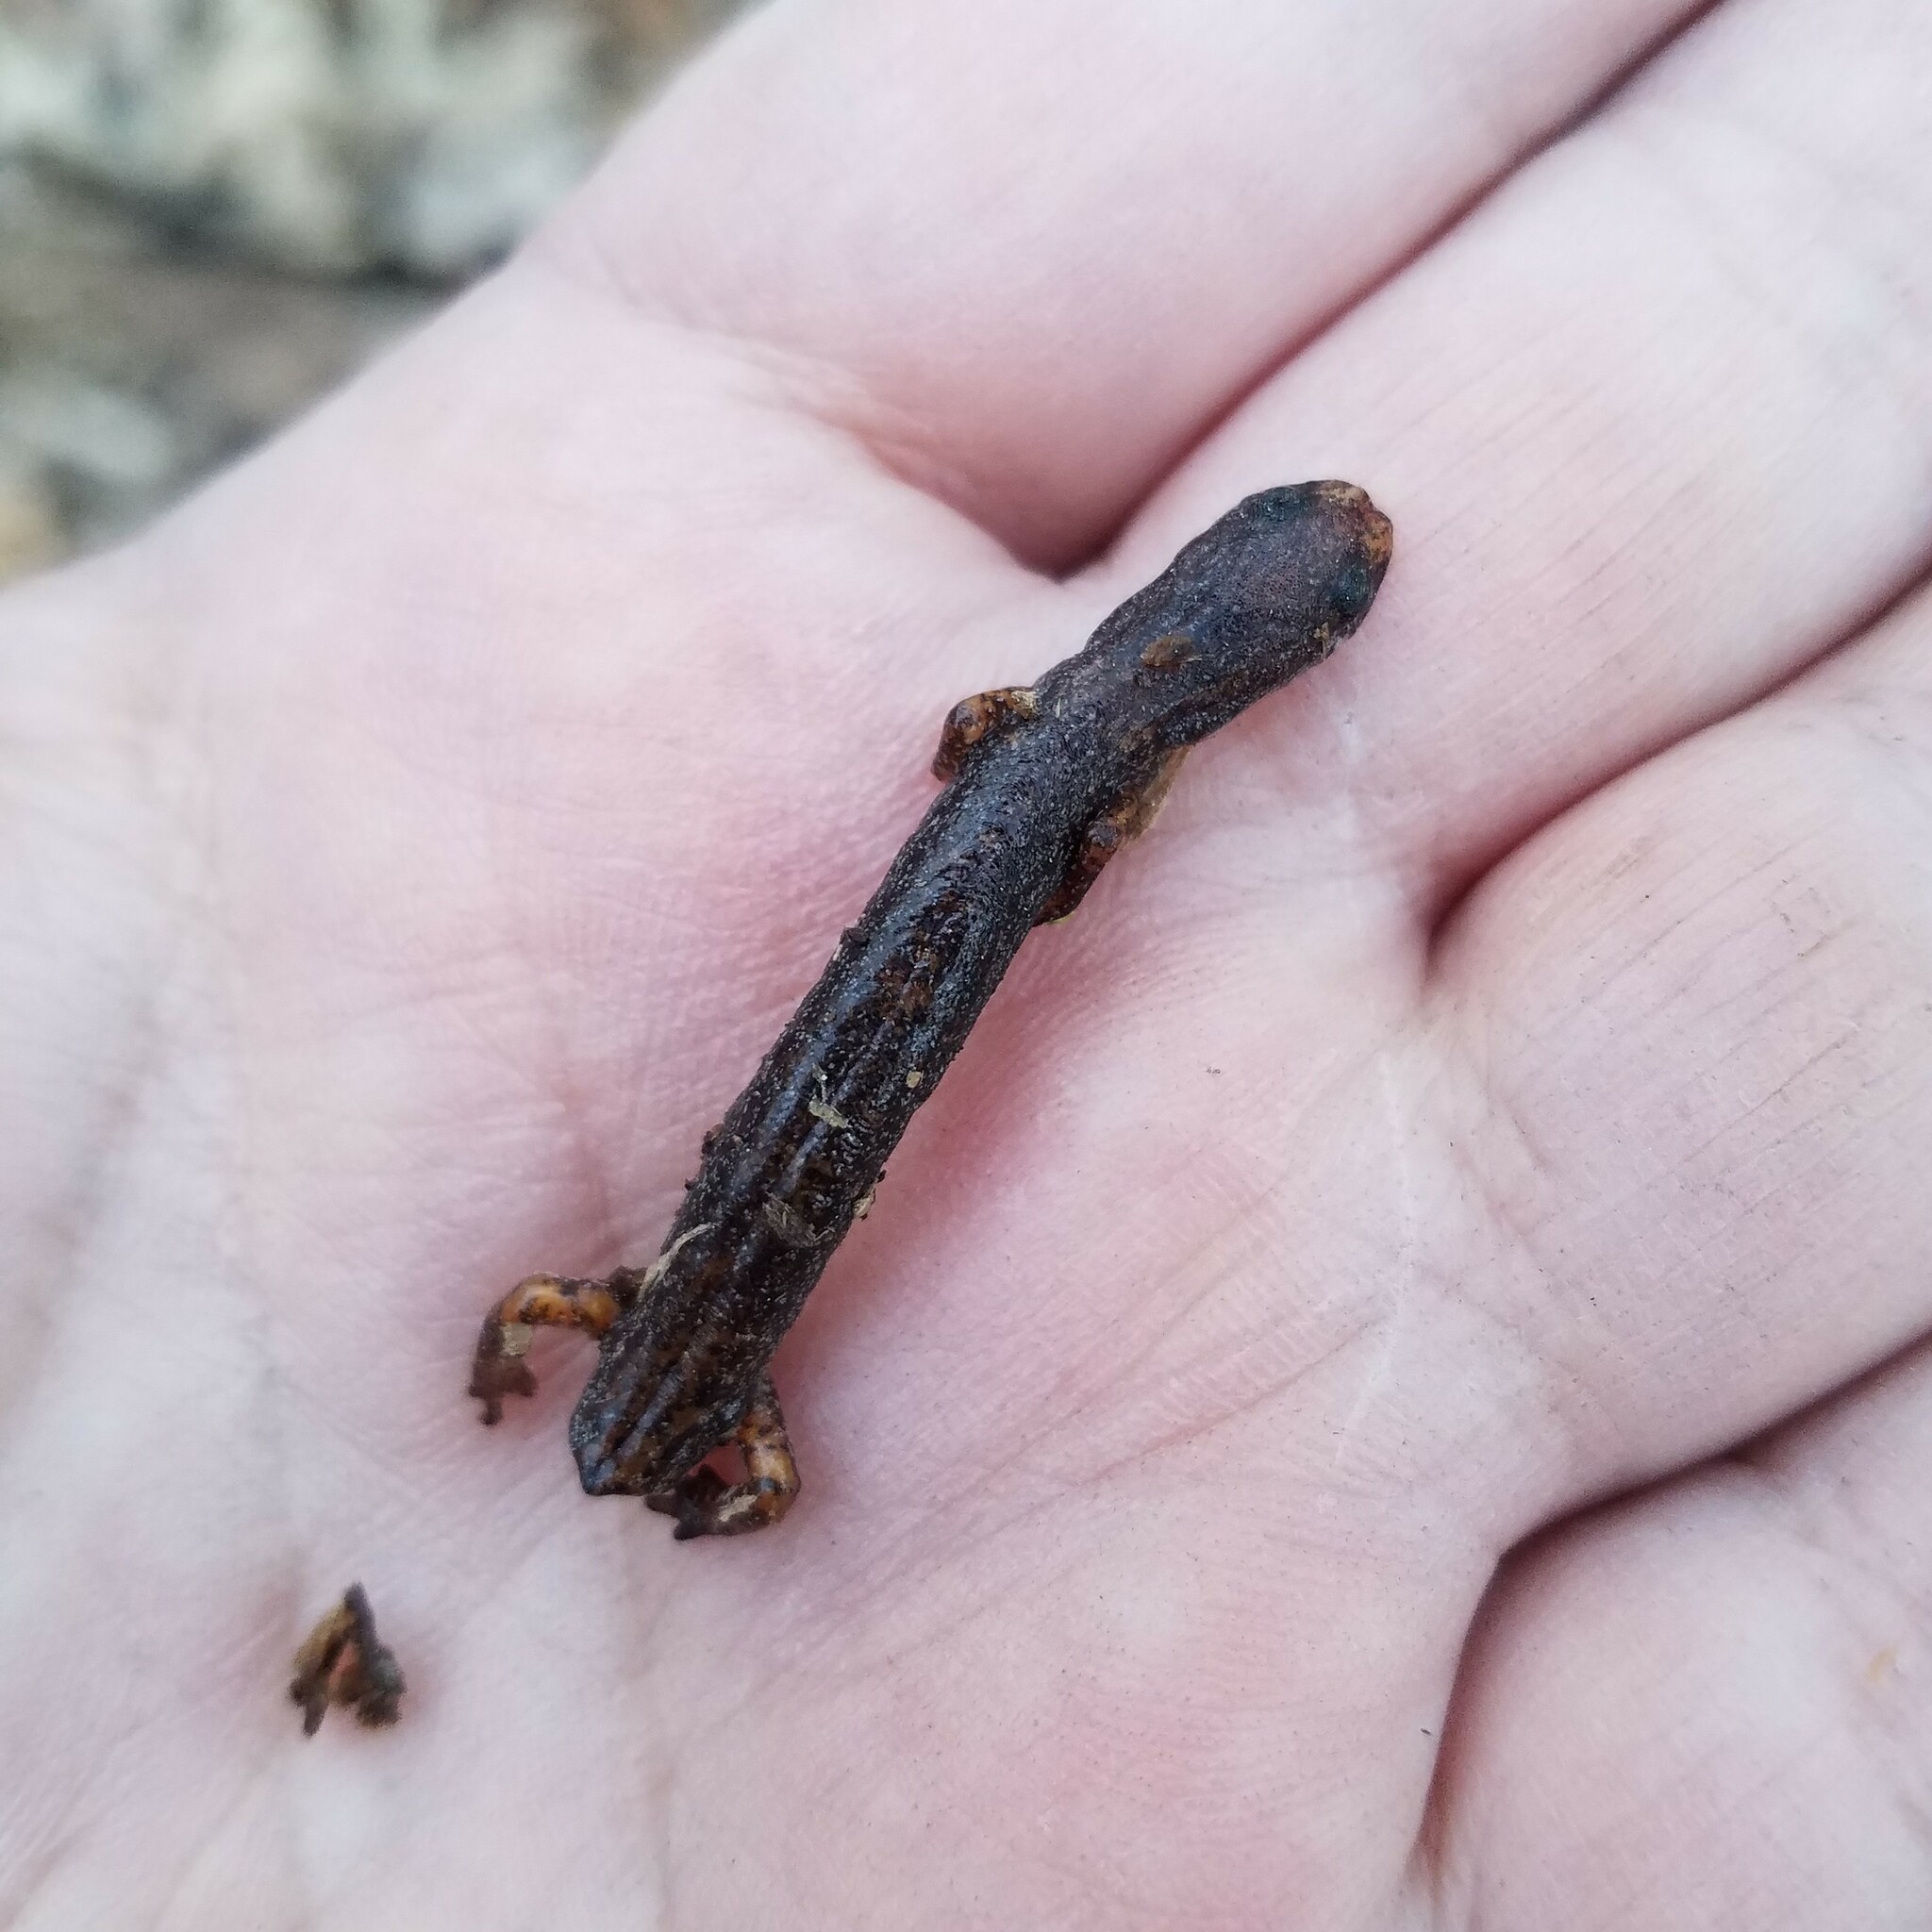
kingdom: Animalia
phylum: Chordata
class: Amphibia
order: Caudata
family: Plethodontidae
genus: Hemidactylium
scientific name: Hemidactylium scutatum
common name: Four-toed salamander
